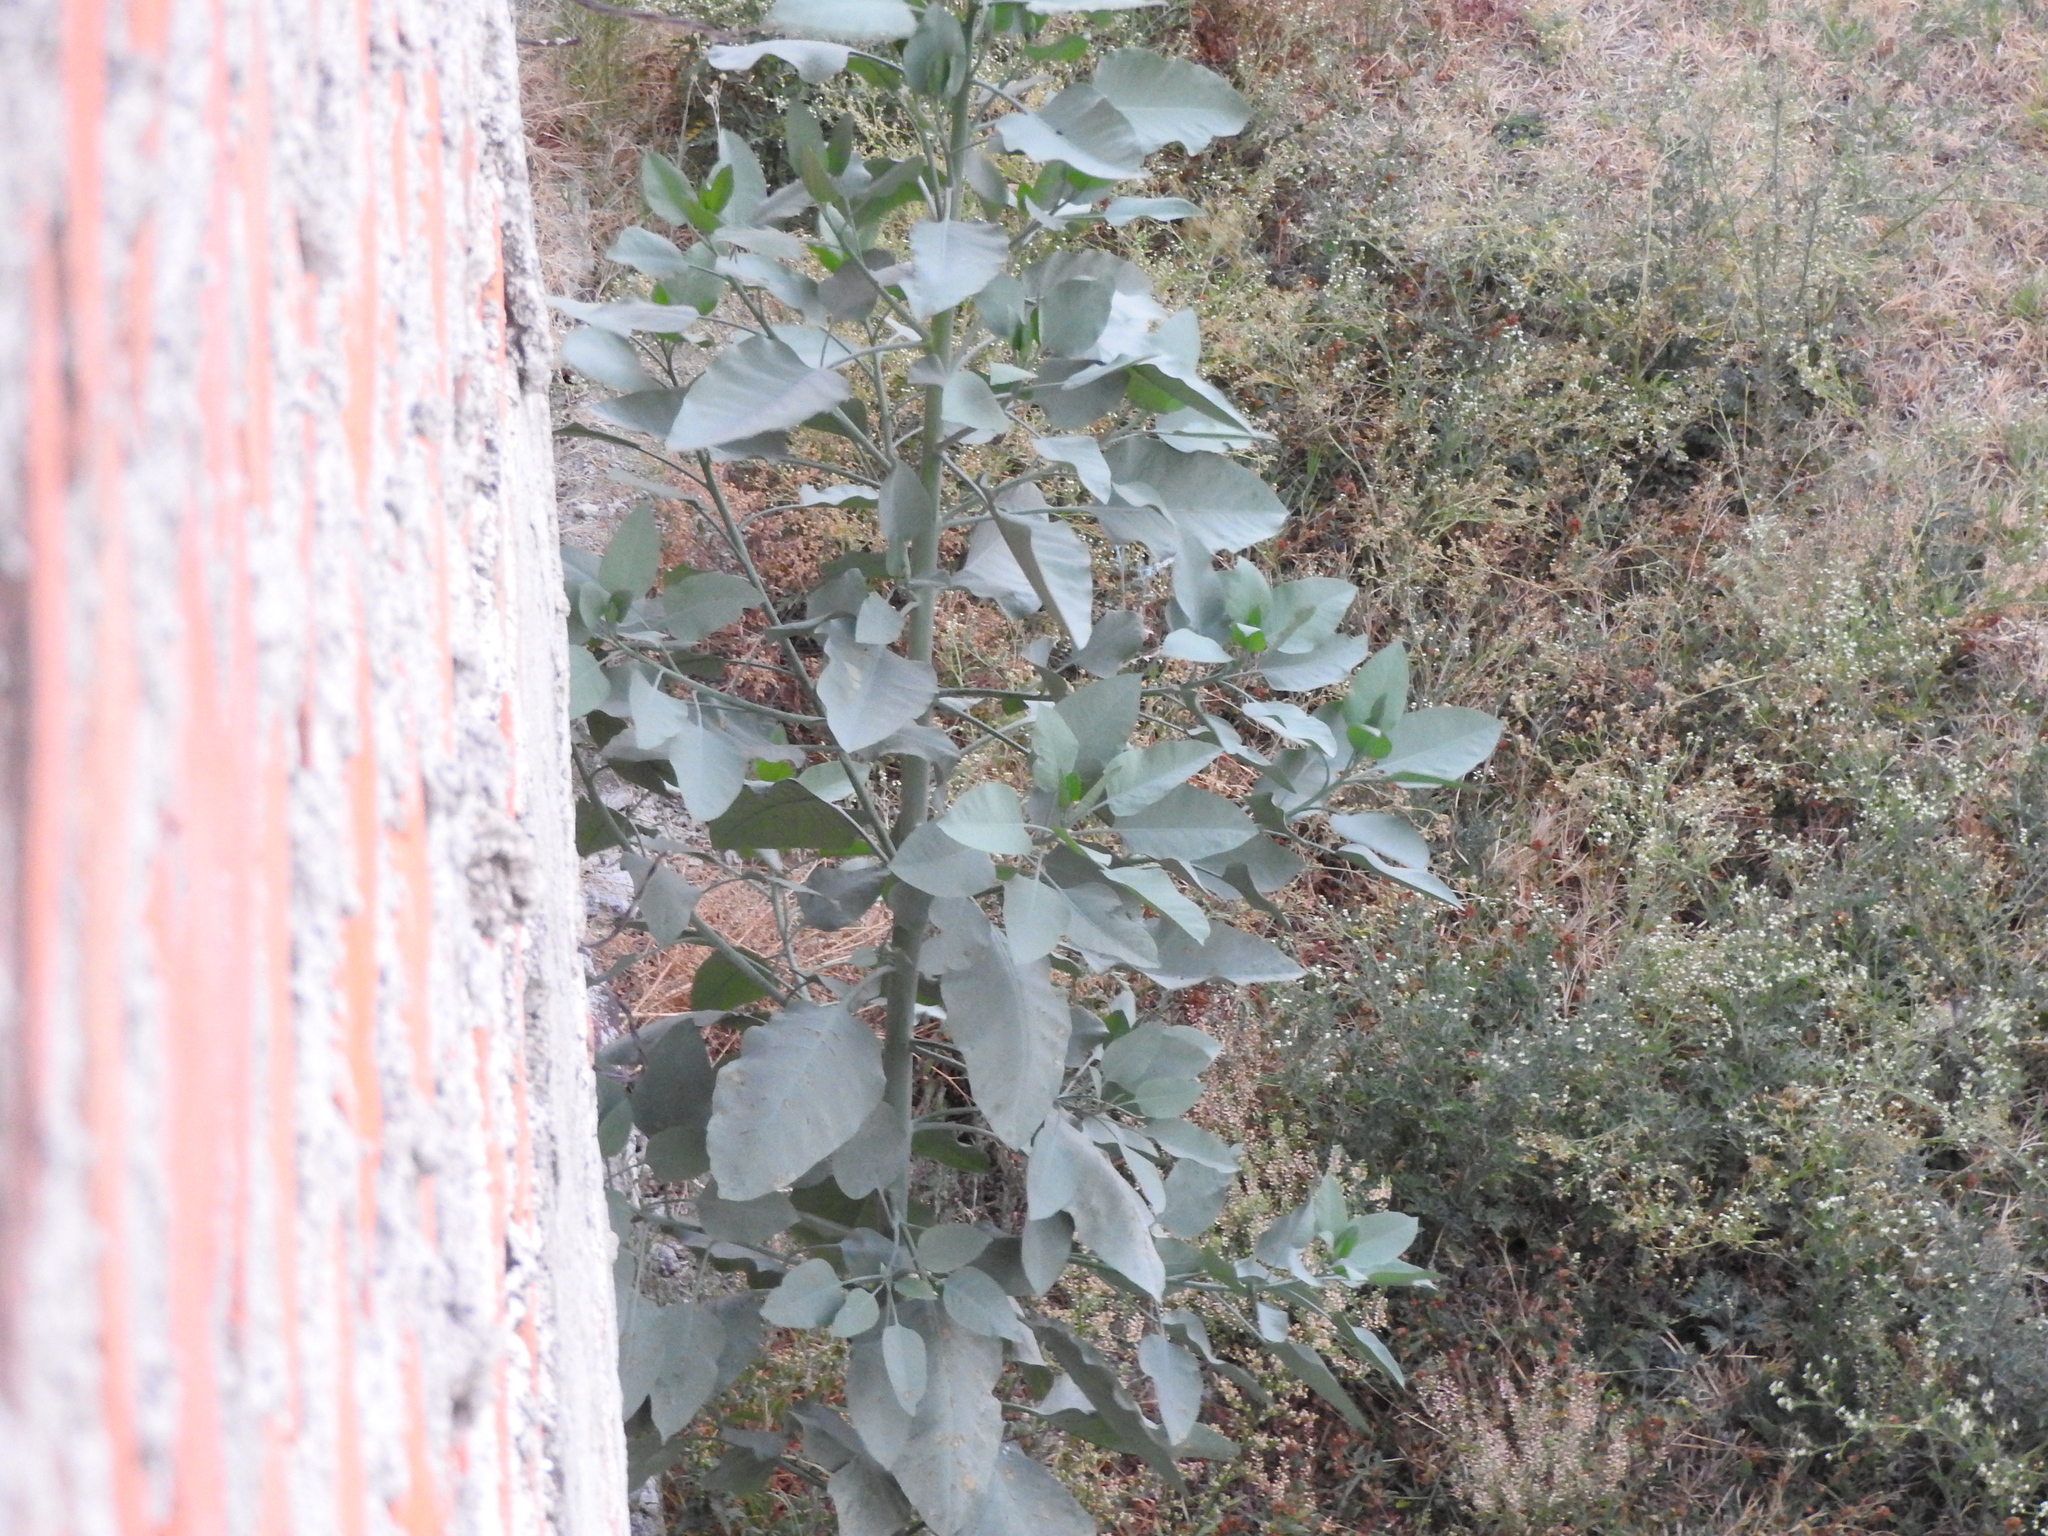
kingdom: Plantae
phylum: Tracheophyta
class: Magnoliopsida
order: Solanales
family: Solanaceae
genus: Nicotiana
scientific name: Nicotiana glauca
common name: Tree tobacco
